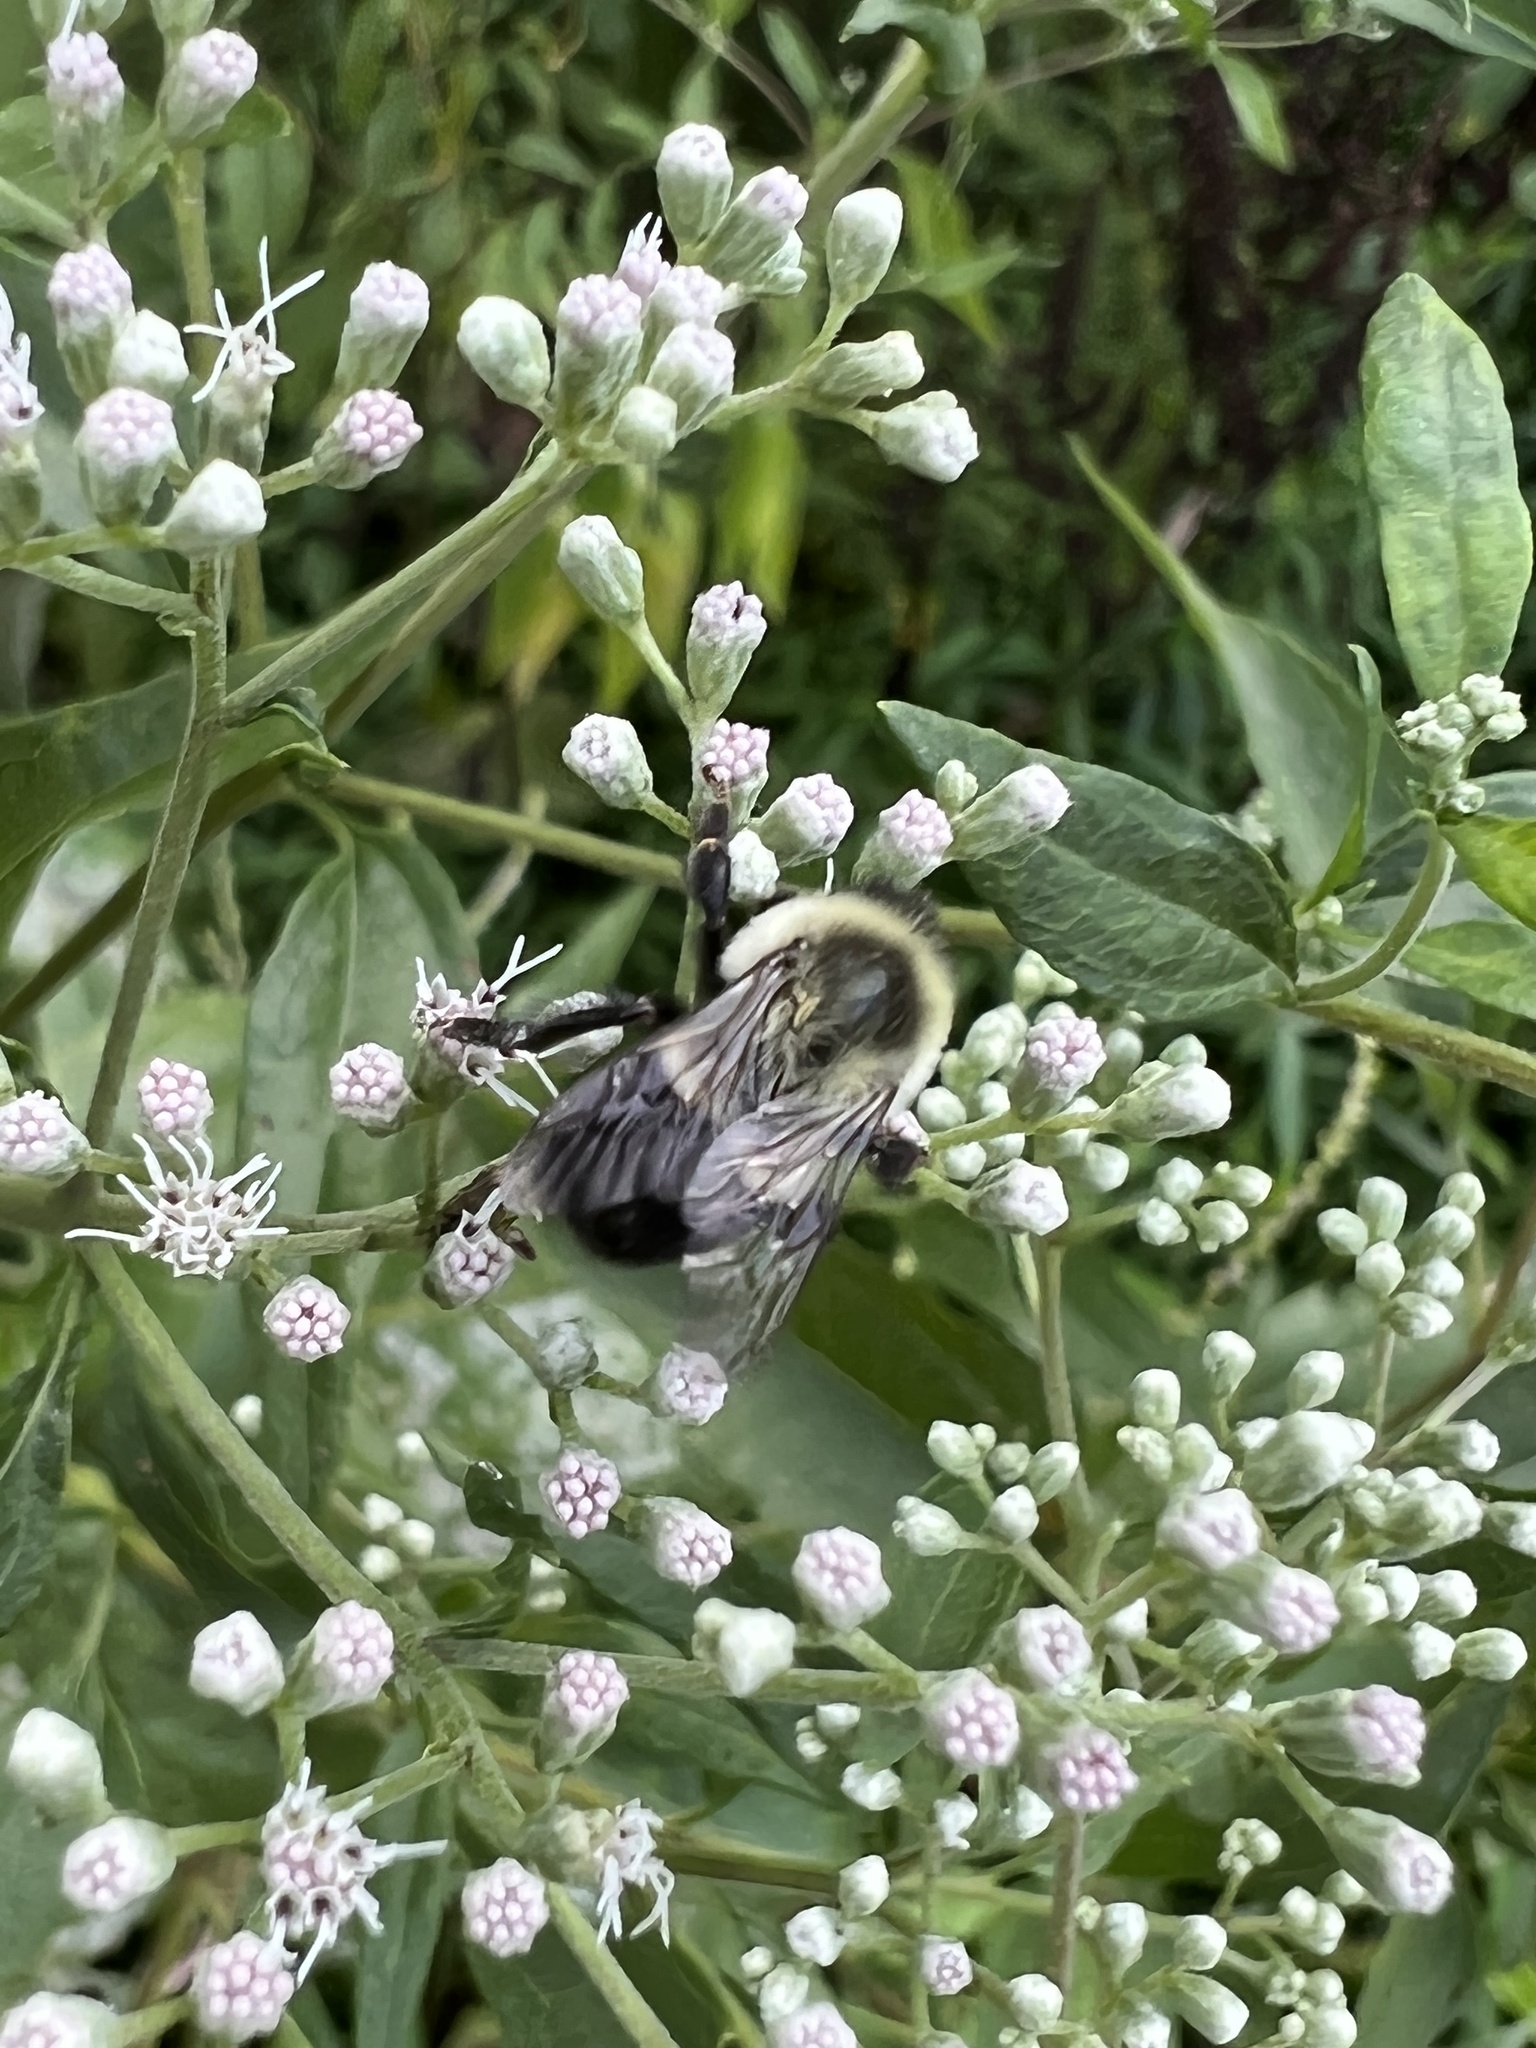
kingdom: Animalia
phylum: Arthropoda
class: Insecta
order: Hymenoptera
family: Apidae
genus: Bombus
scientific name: Bombus impatiens
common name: Common eastern bumble bee
